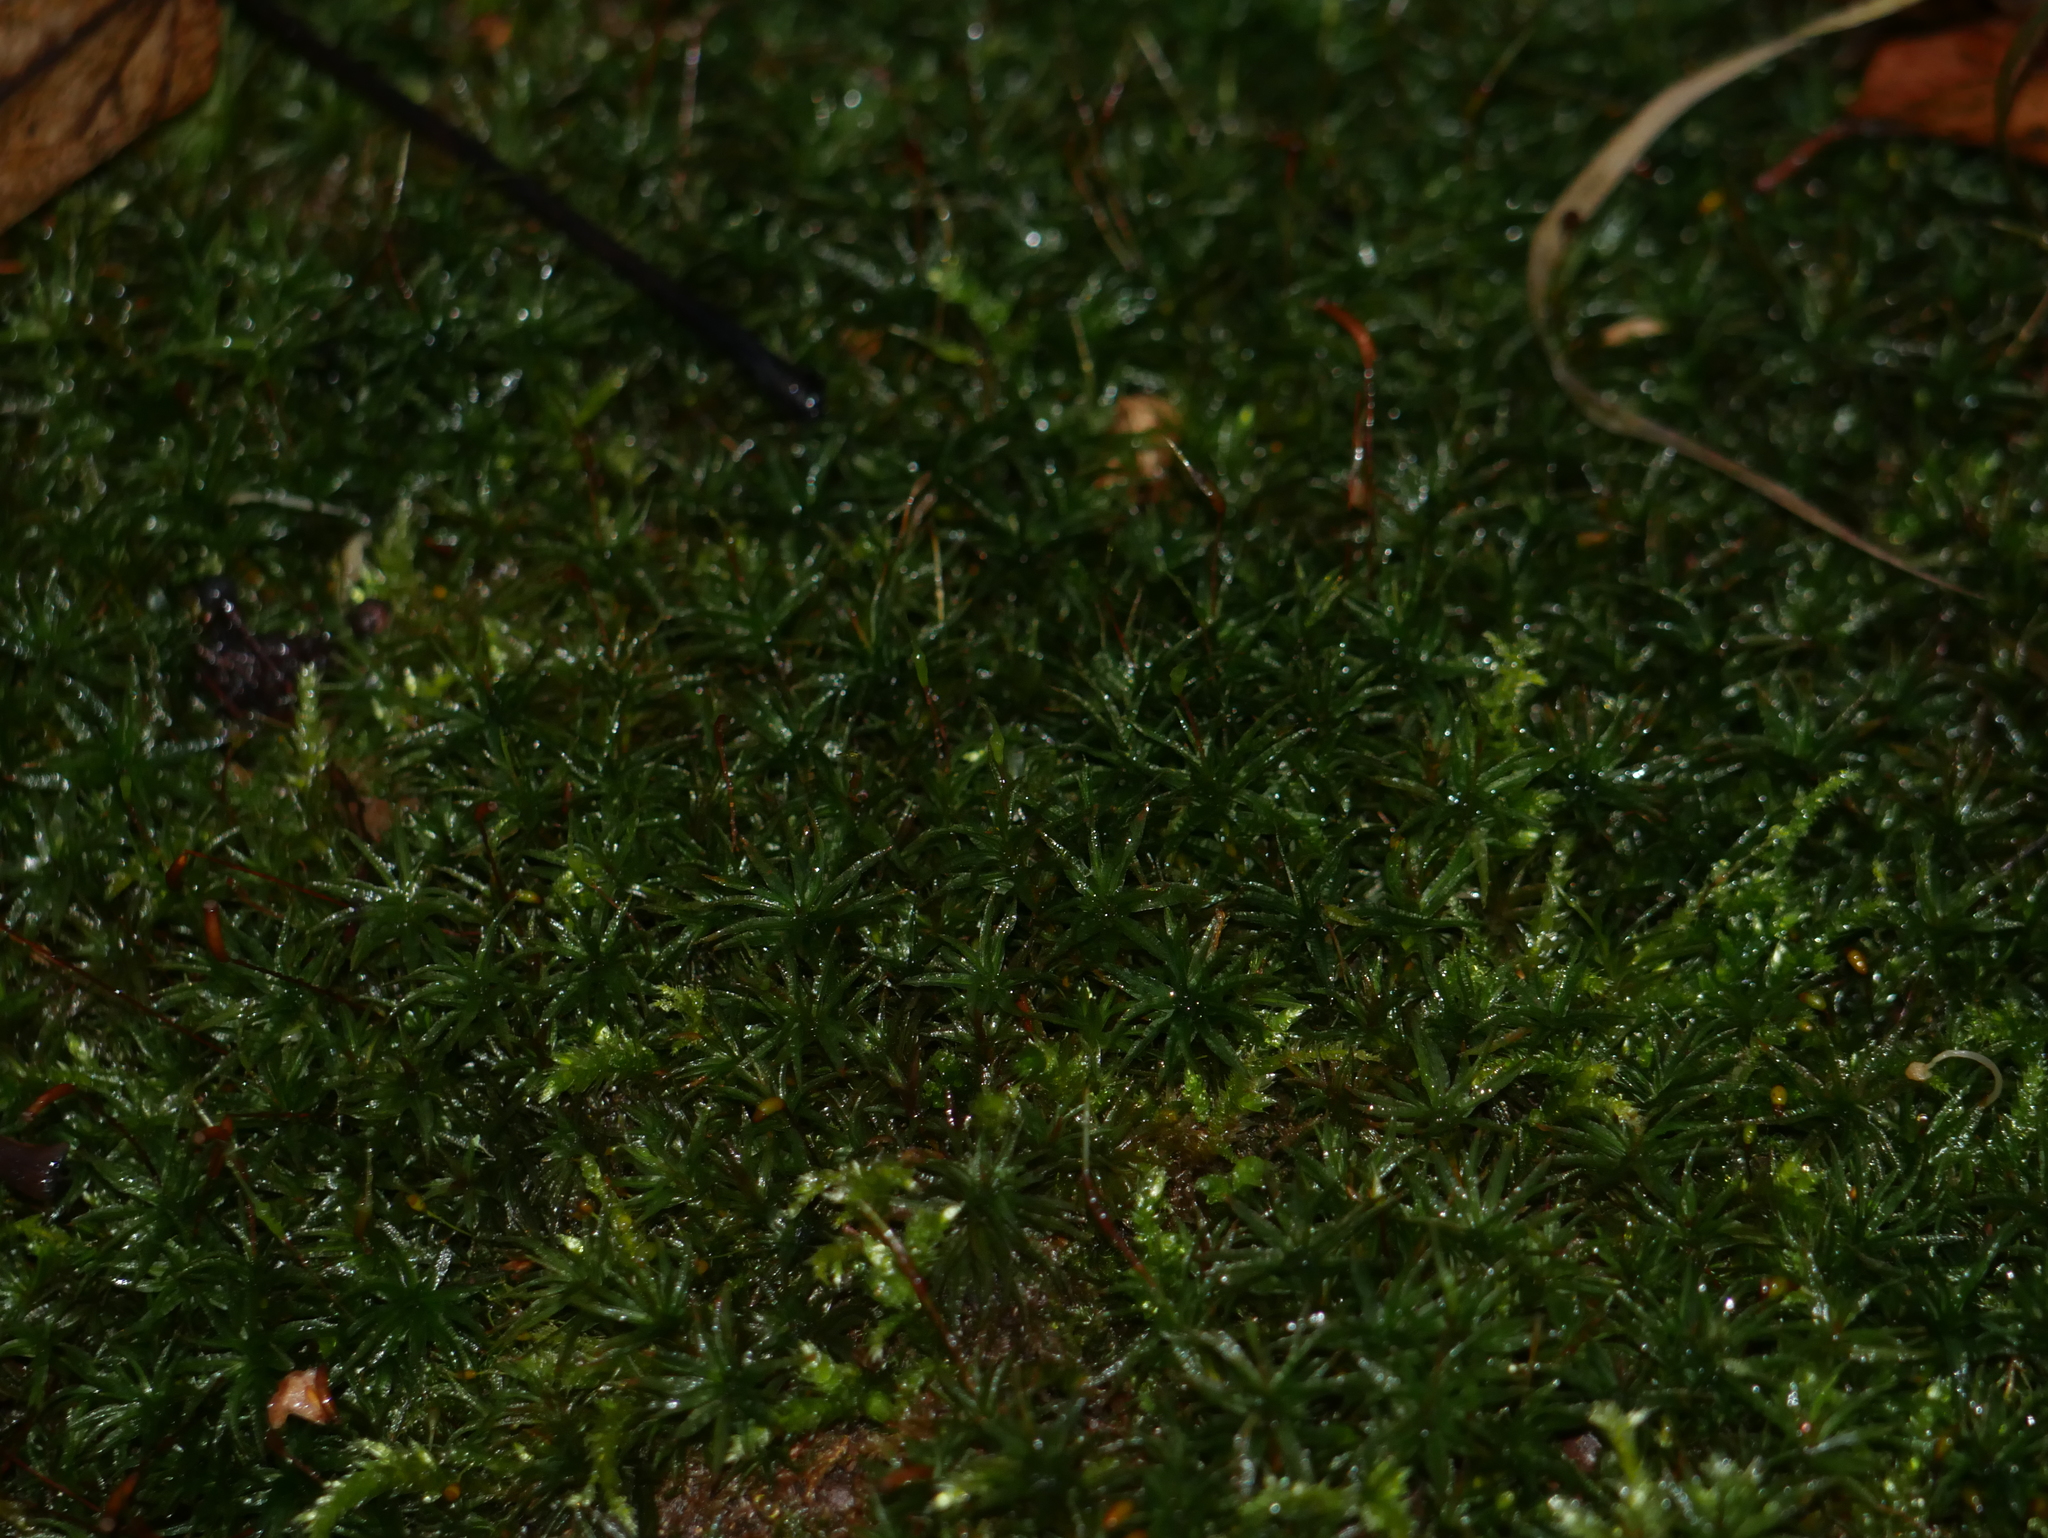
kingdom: Plantae
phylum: Bryophyta
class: Polytrichopsida
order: Polytrichales
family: Polytrichaceae
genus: Atrichum
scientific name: Atrichum undulatum
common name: Common smoothcap
